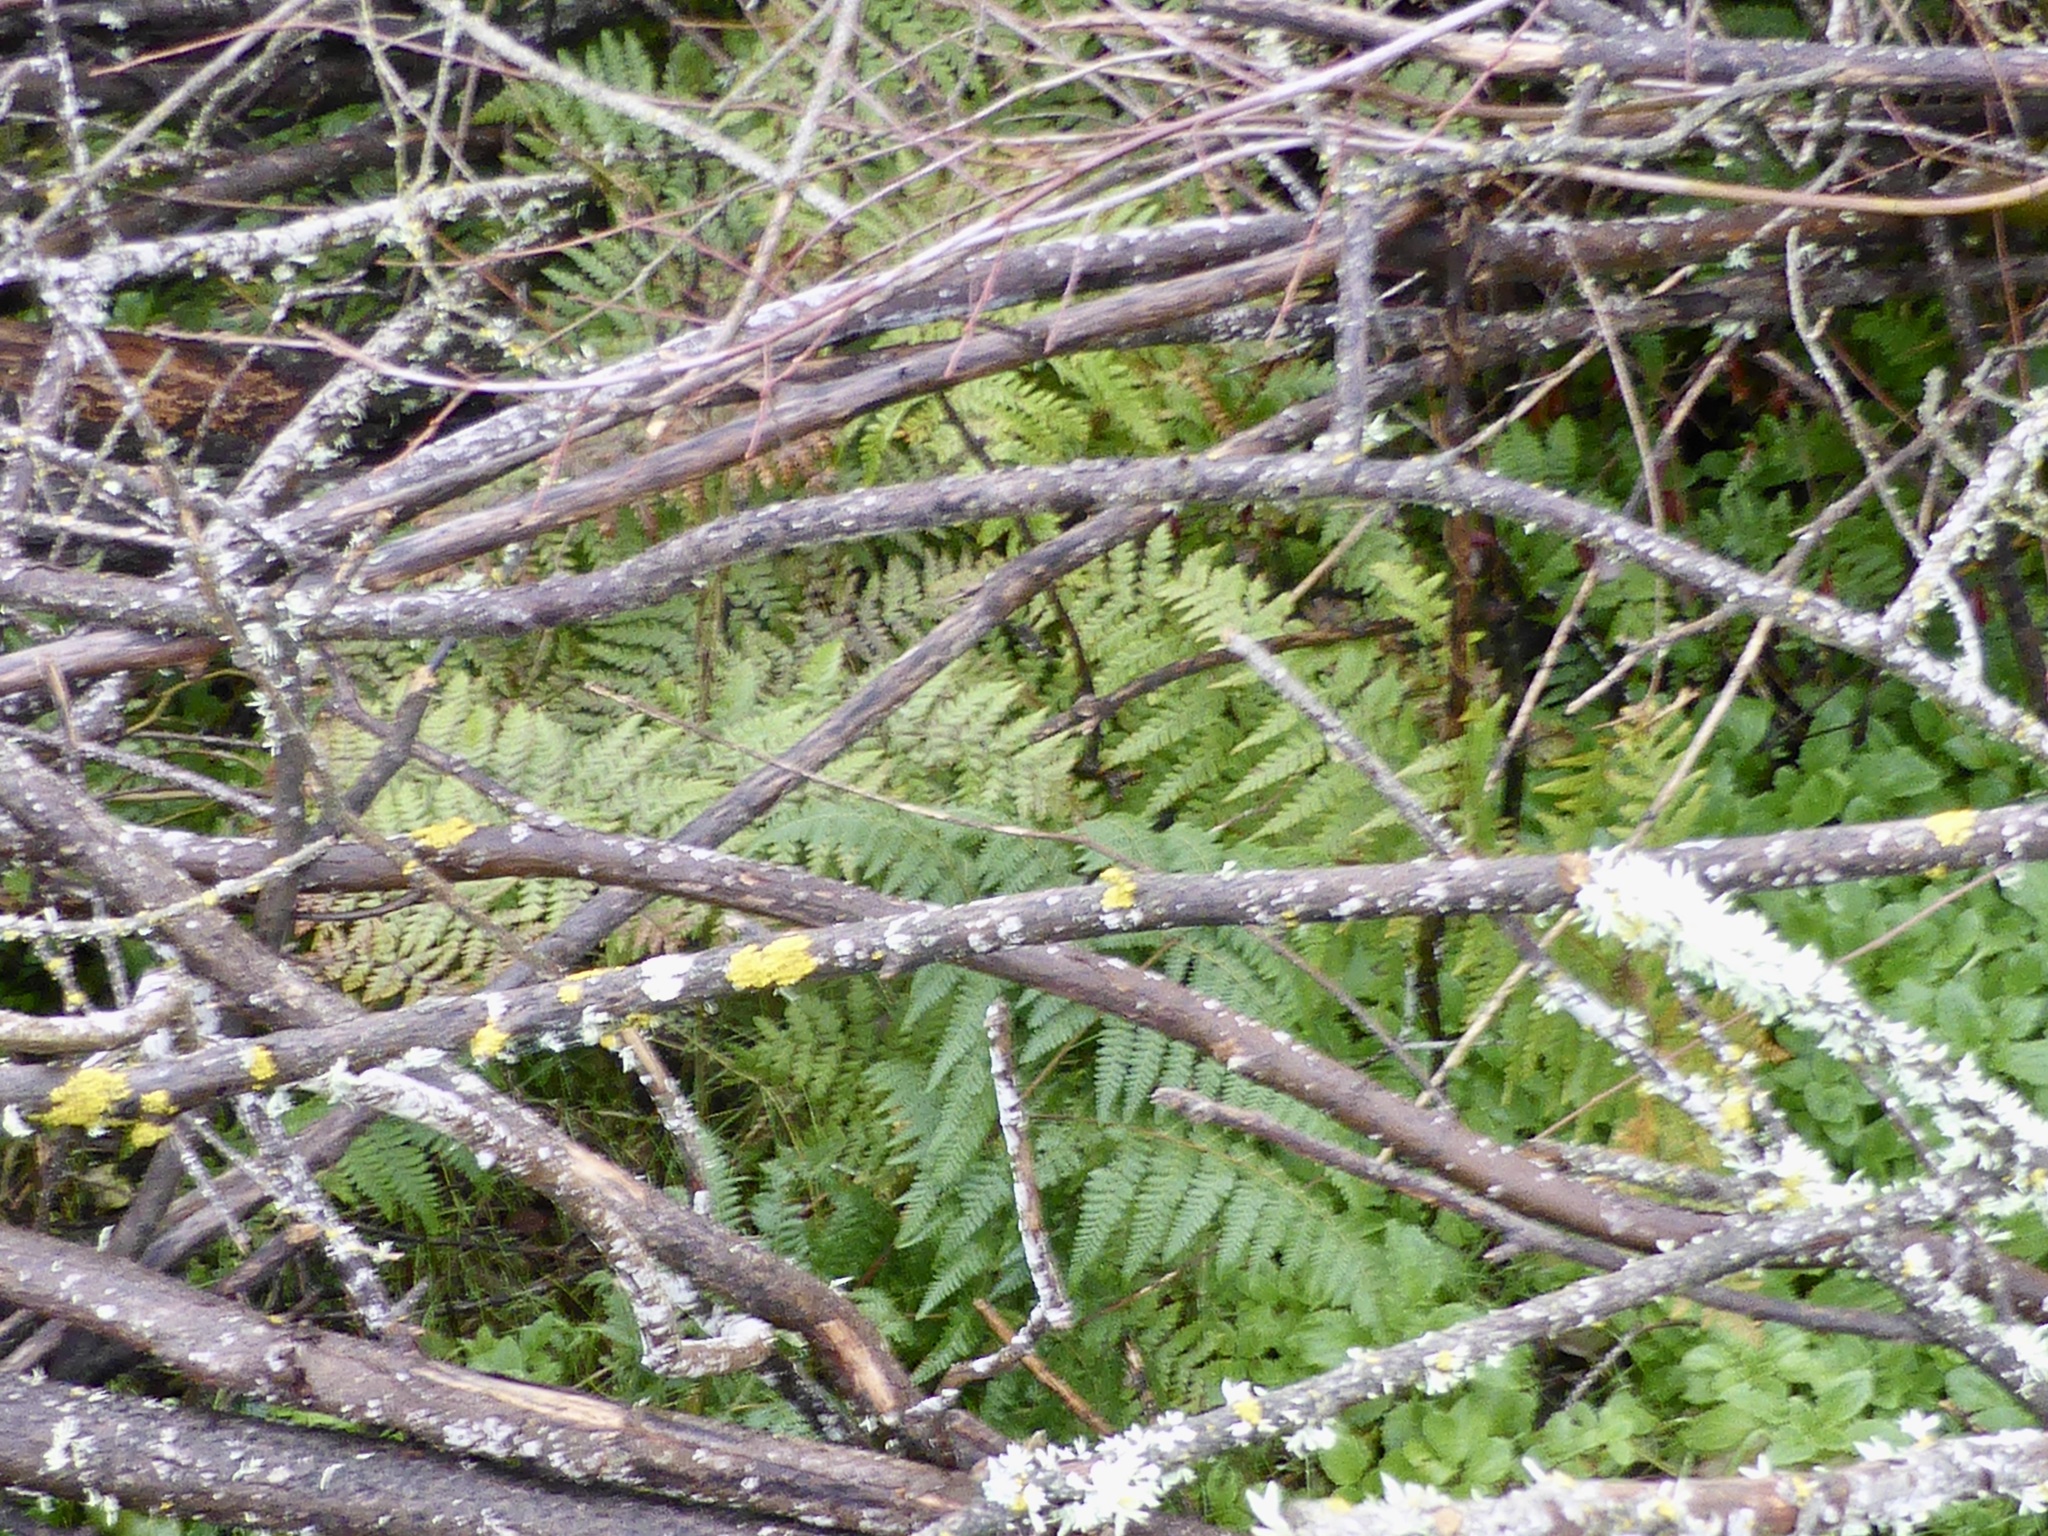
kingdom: Plantae
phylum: Tracheophyta
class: Polypodiopsida
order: Polypodiales
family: Dennstaedtiaceae
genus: Hypolepis
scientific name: Hypolepis ambigua
